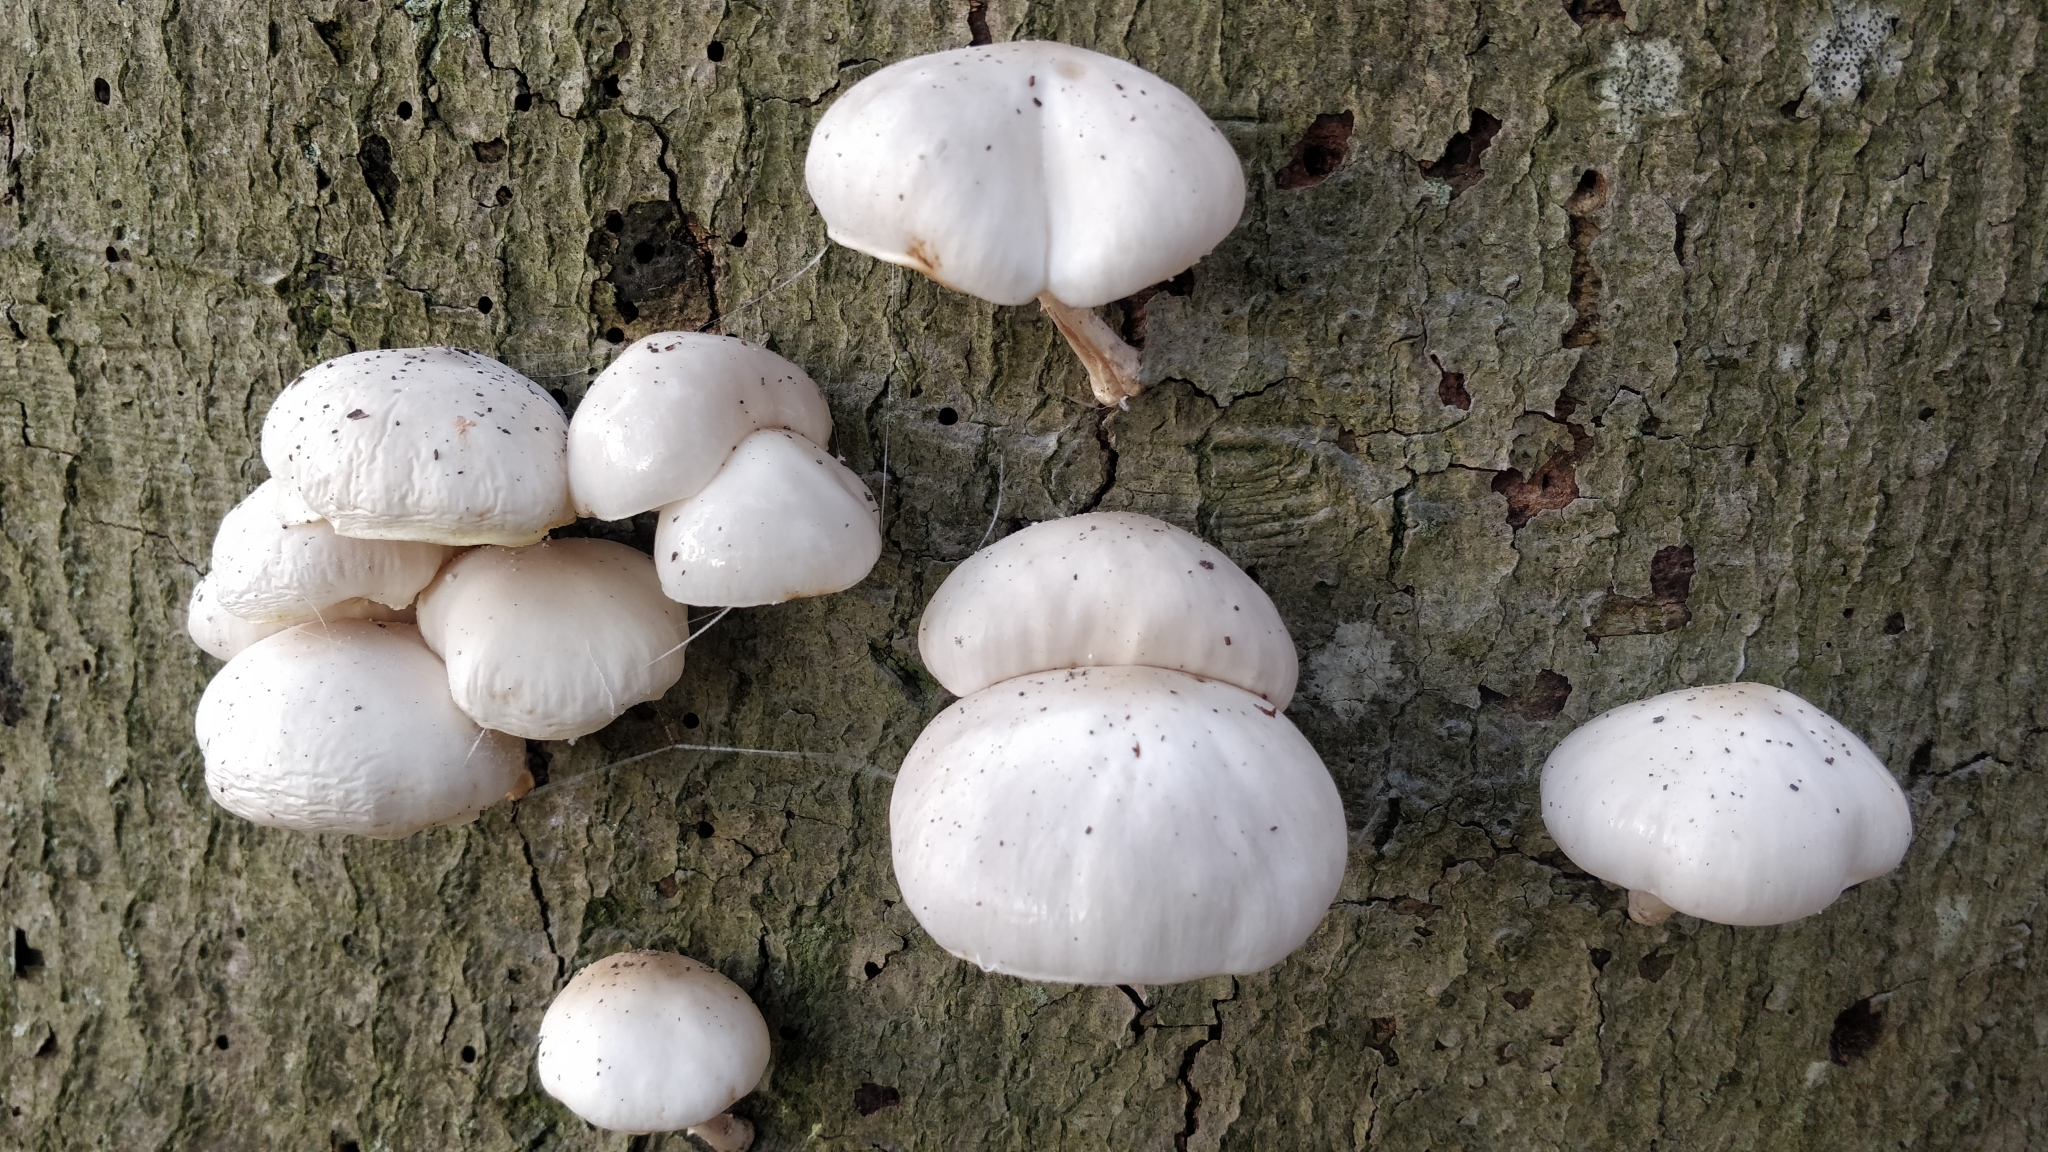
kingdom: Fungi
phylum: Basidiomycota
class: Agaricomycetes
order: Agaricales
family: Physalacriaceae
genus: Mucidula
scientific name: Mucidula mucida
